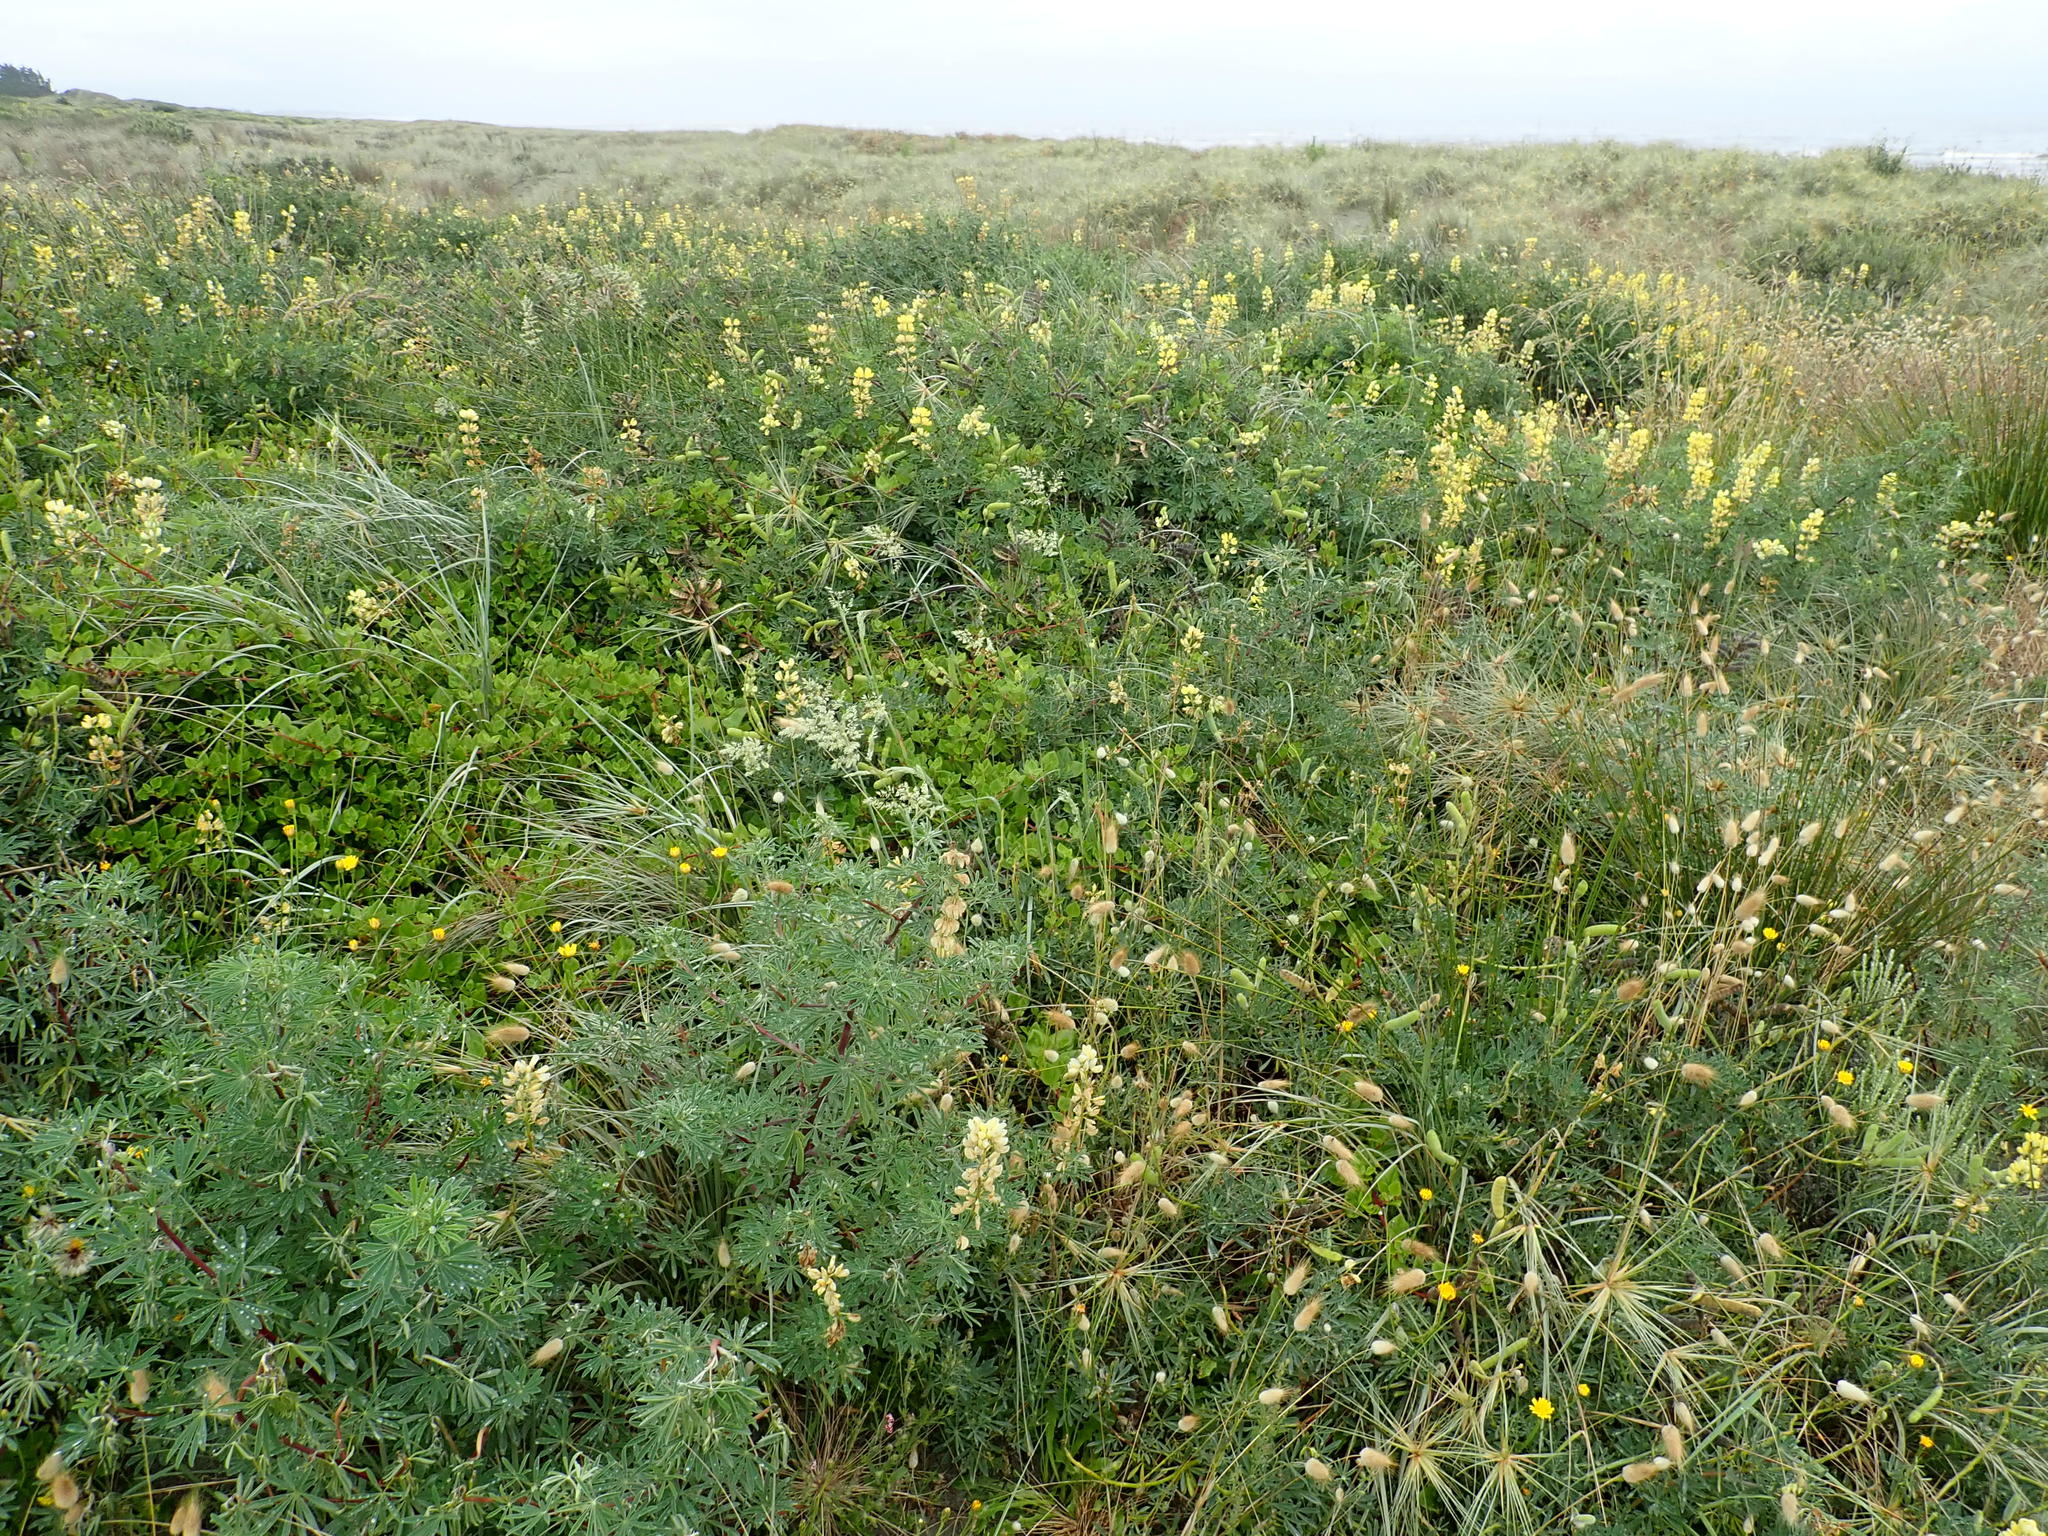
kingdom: Plantae
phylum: Tracheophyta
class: Magnoliopsida
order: Caryophyllales
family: Aizoaceae
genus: Tetragonia
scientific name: Tetragonia implexicoma
